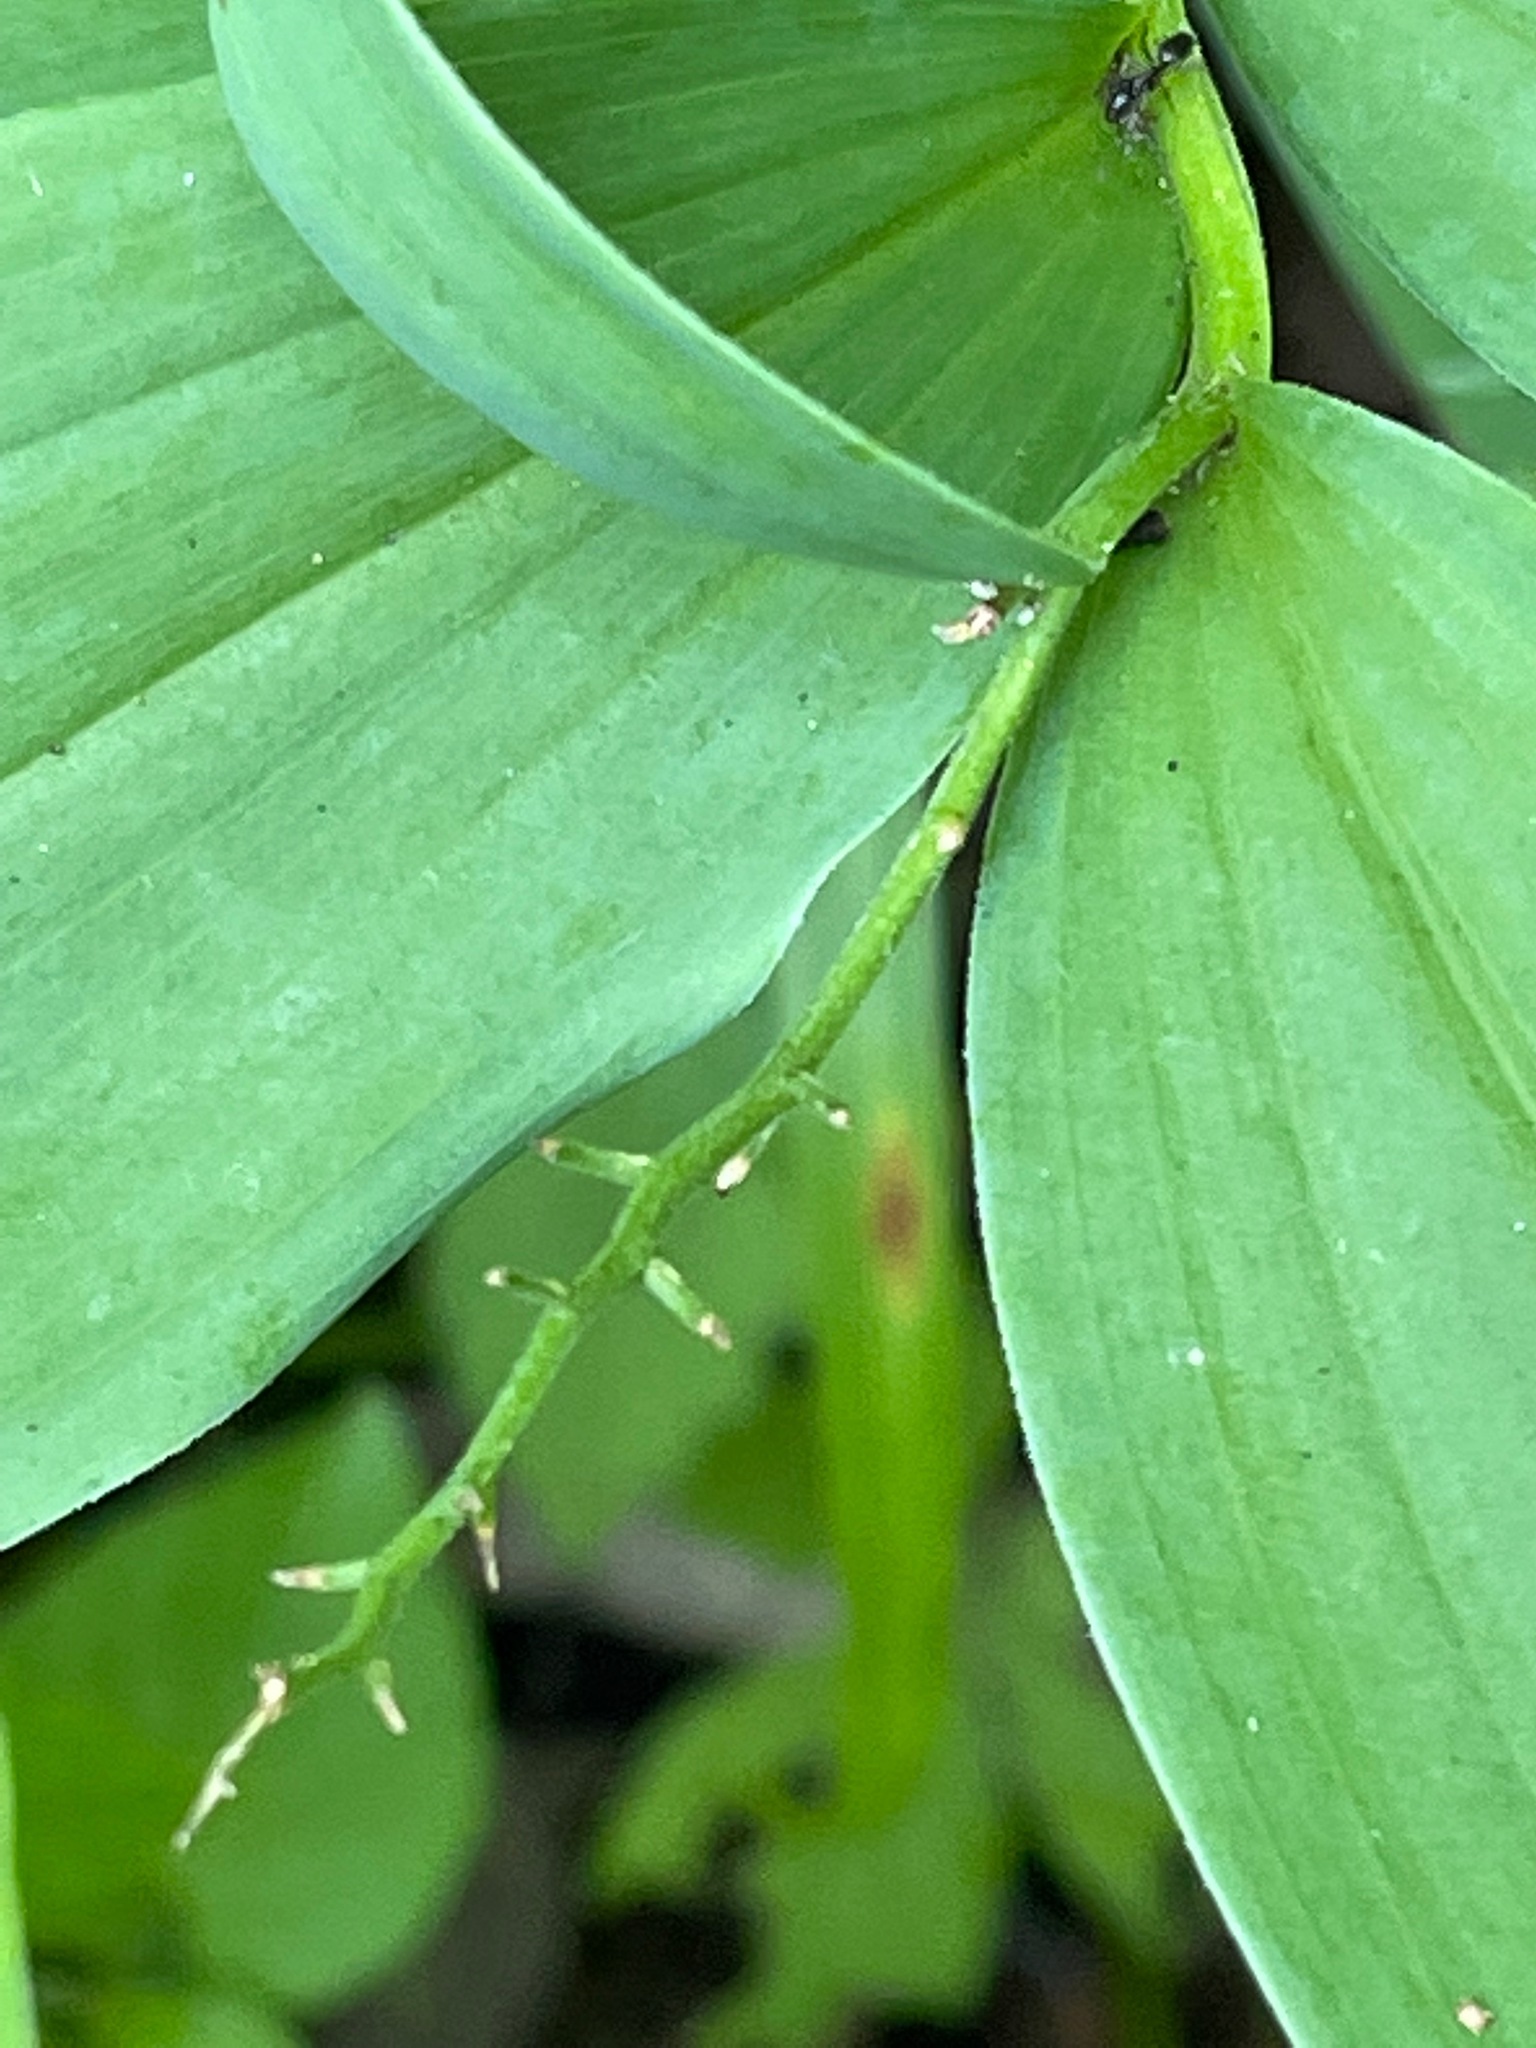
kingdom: Plantae
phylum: Tracheophyta
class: Liliopsida
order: Asparagales
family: Asparagaceae
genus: Maianthemum
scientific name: Maianthemum stellatum
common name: Little false solomon's seal
